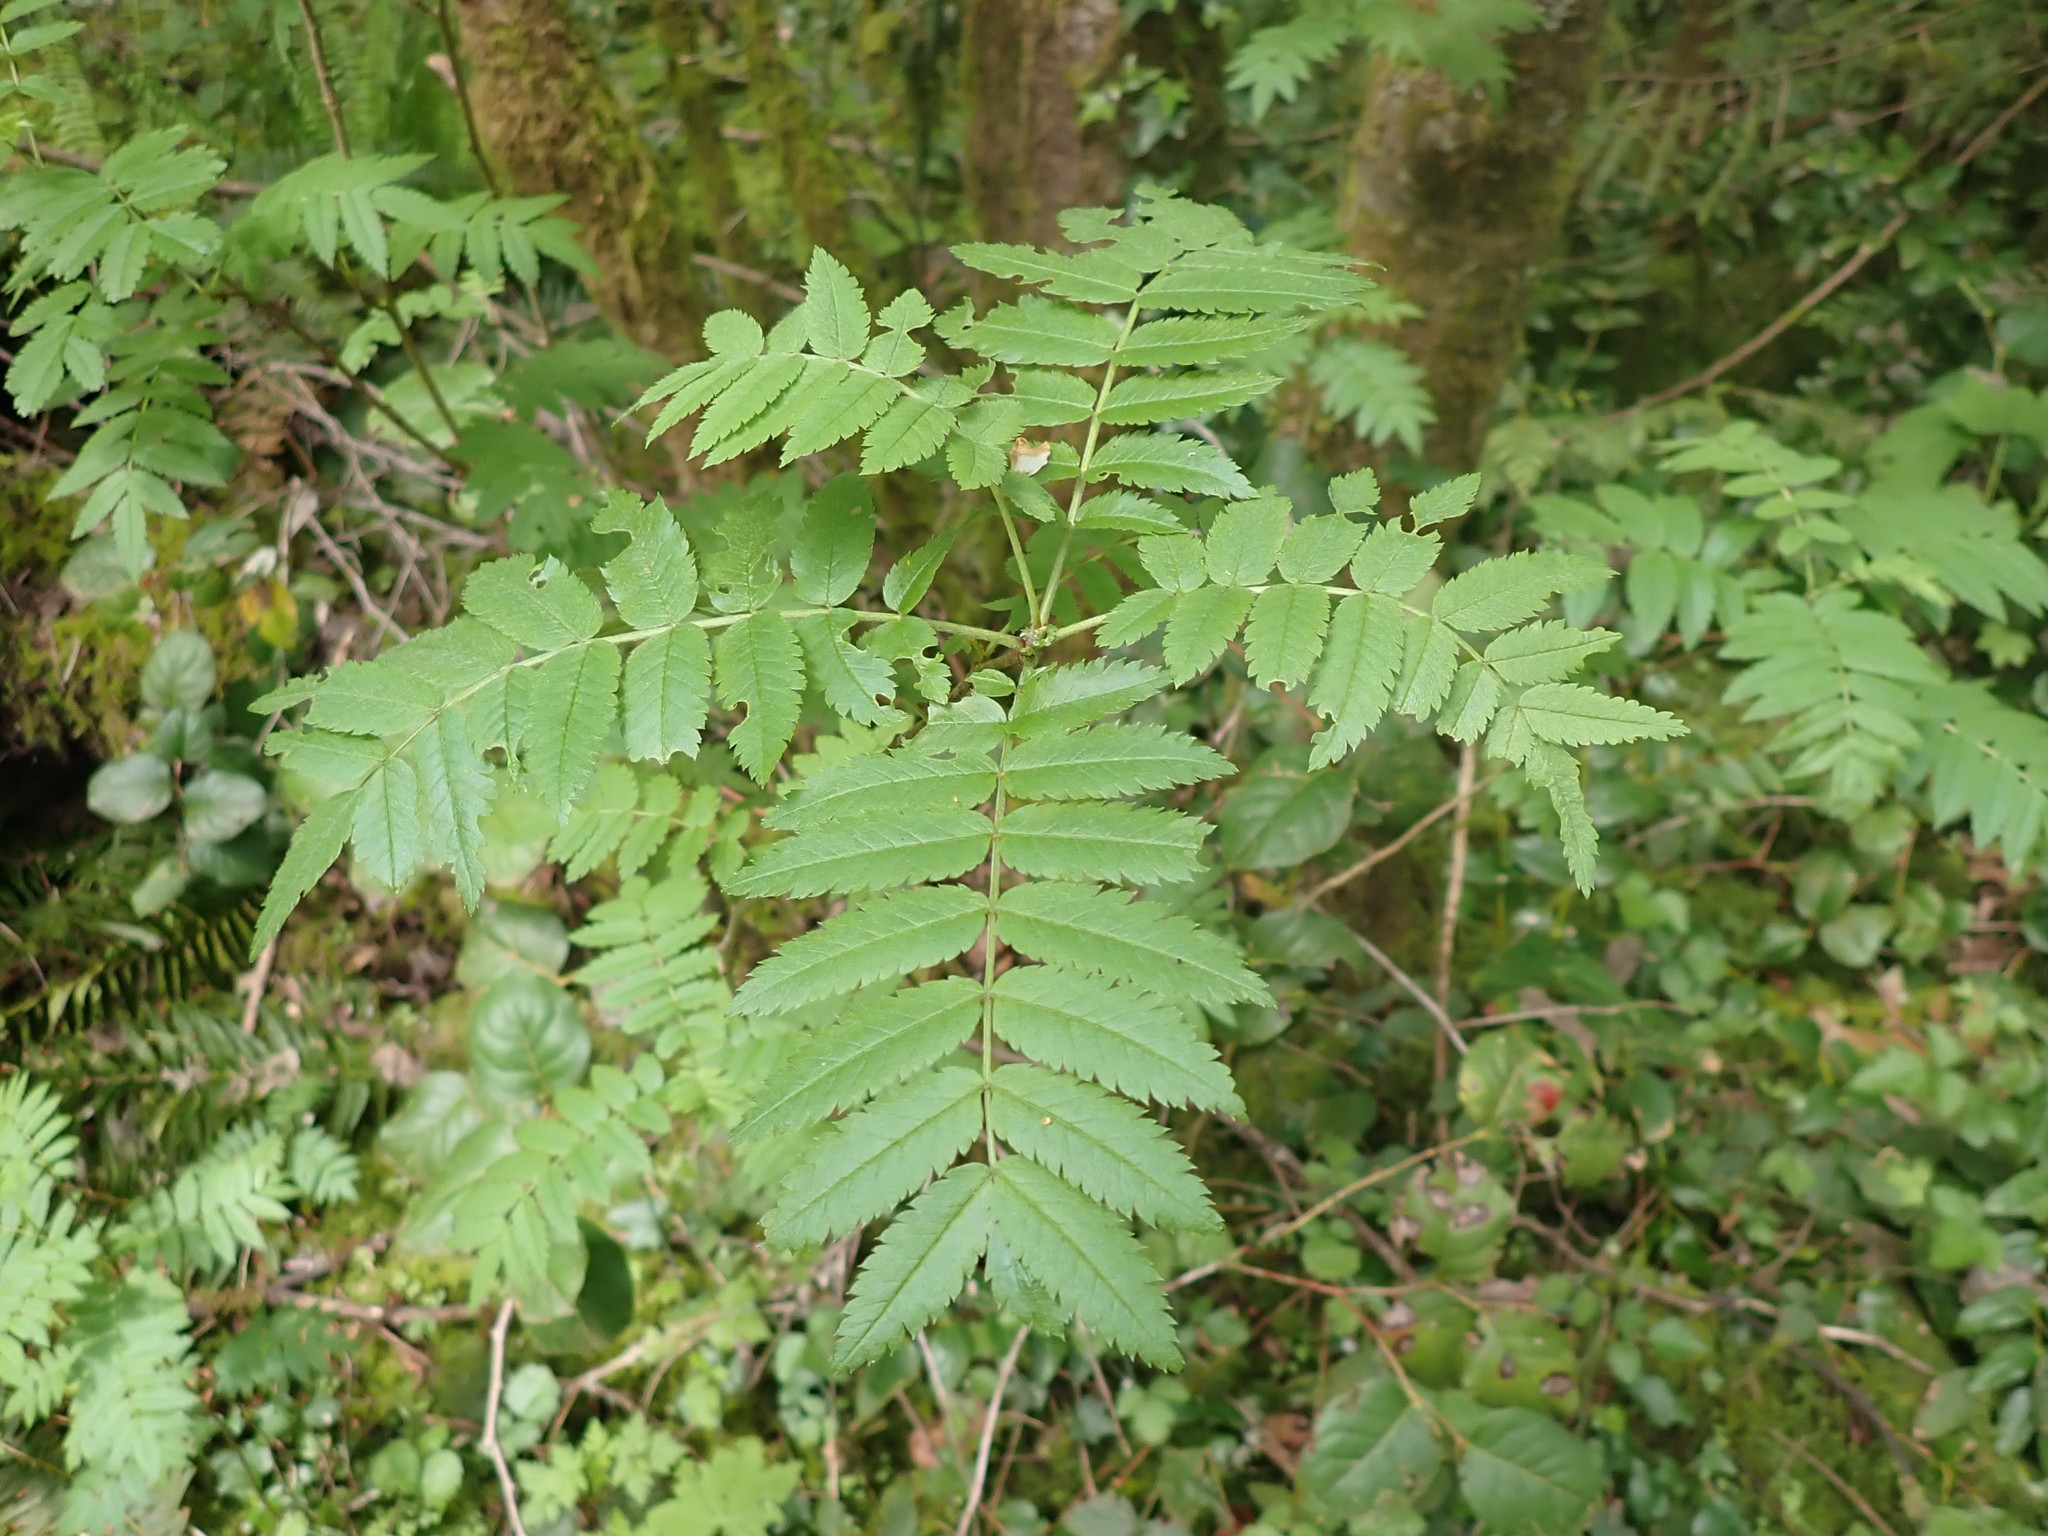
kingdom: Plantae
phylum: Tracheophyta
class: Magnoliopsida
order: Rosales
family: Rosaceae
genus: Sorbus
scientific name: Sorbus aucuparia
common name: Rowan
